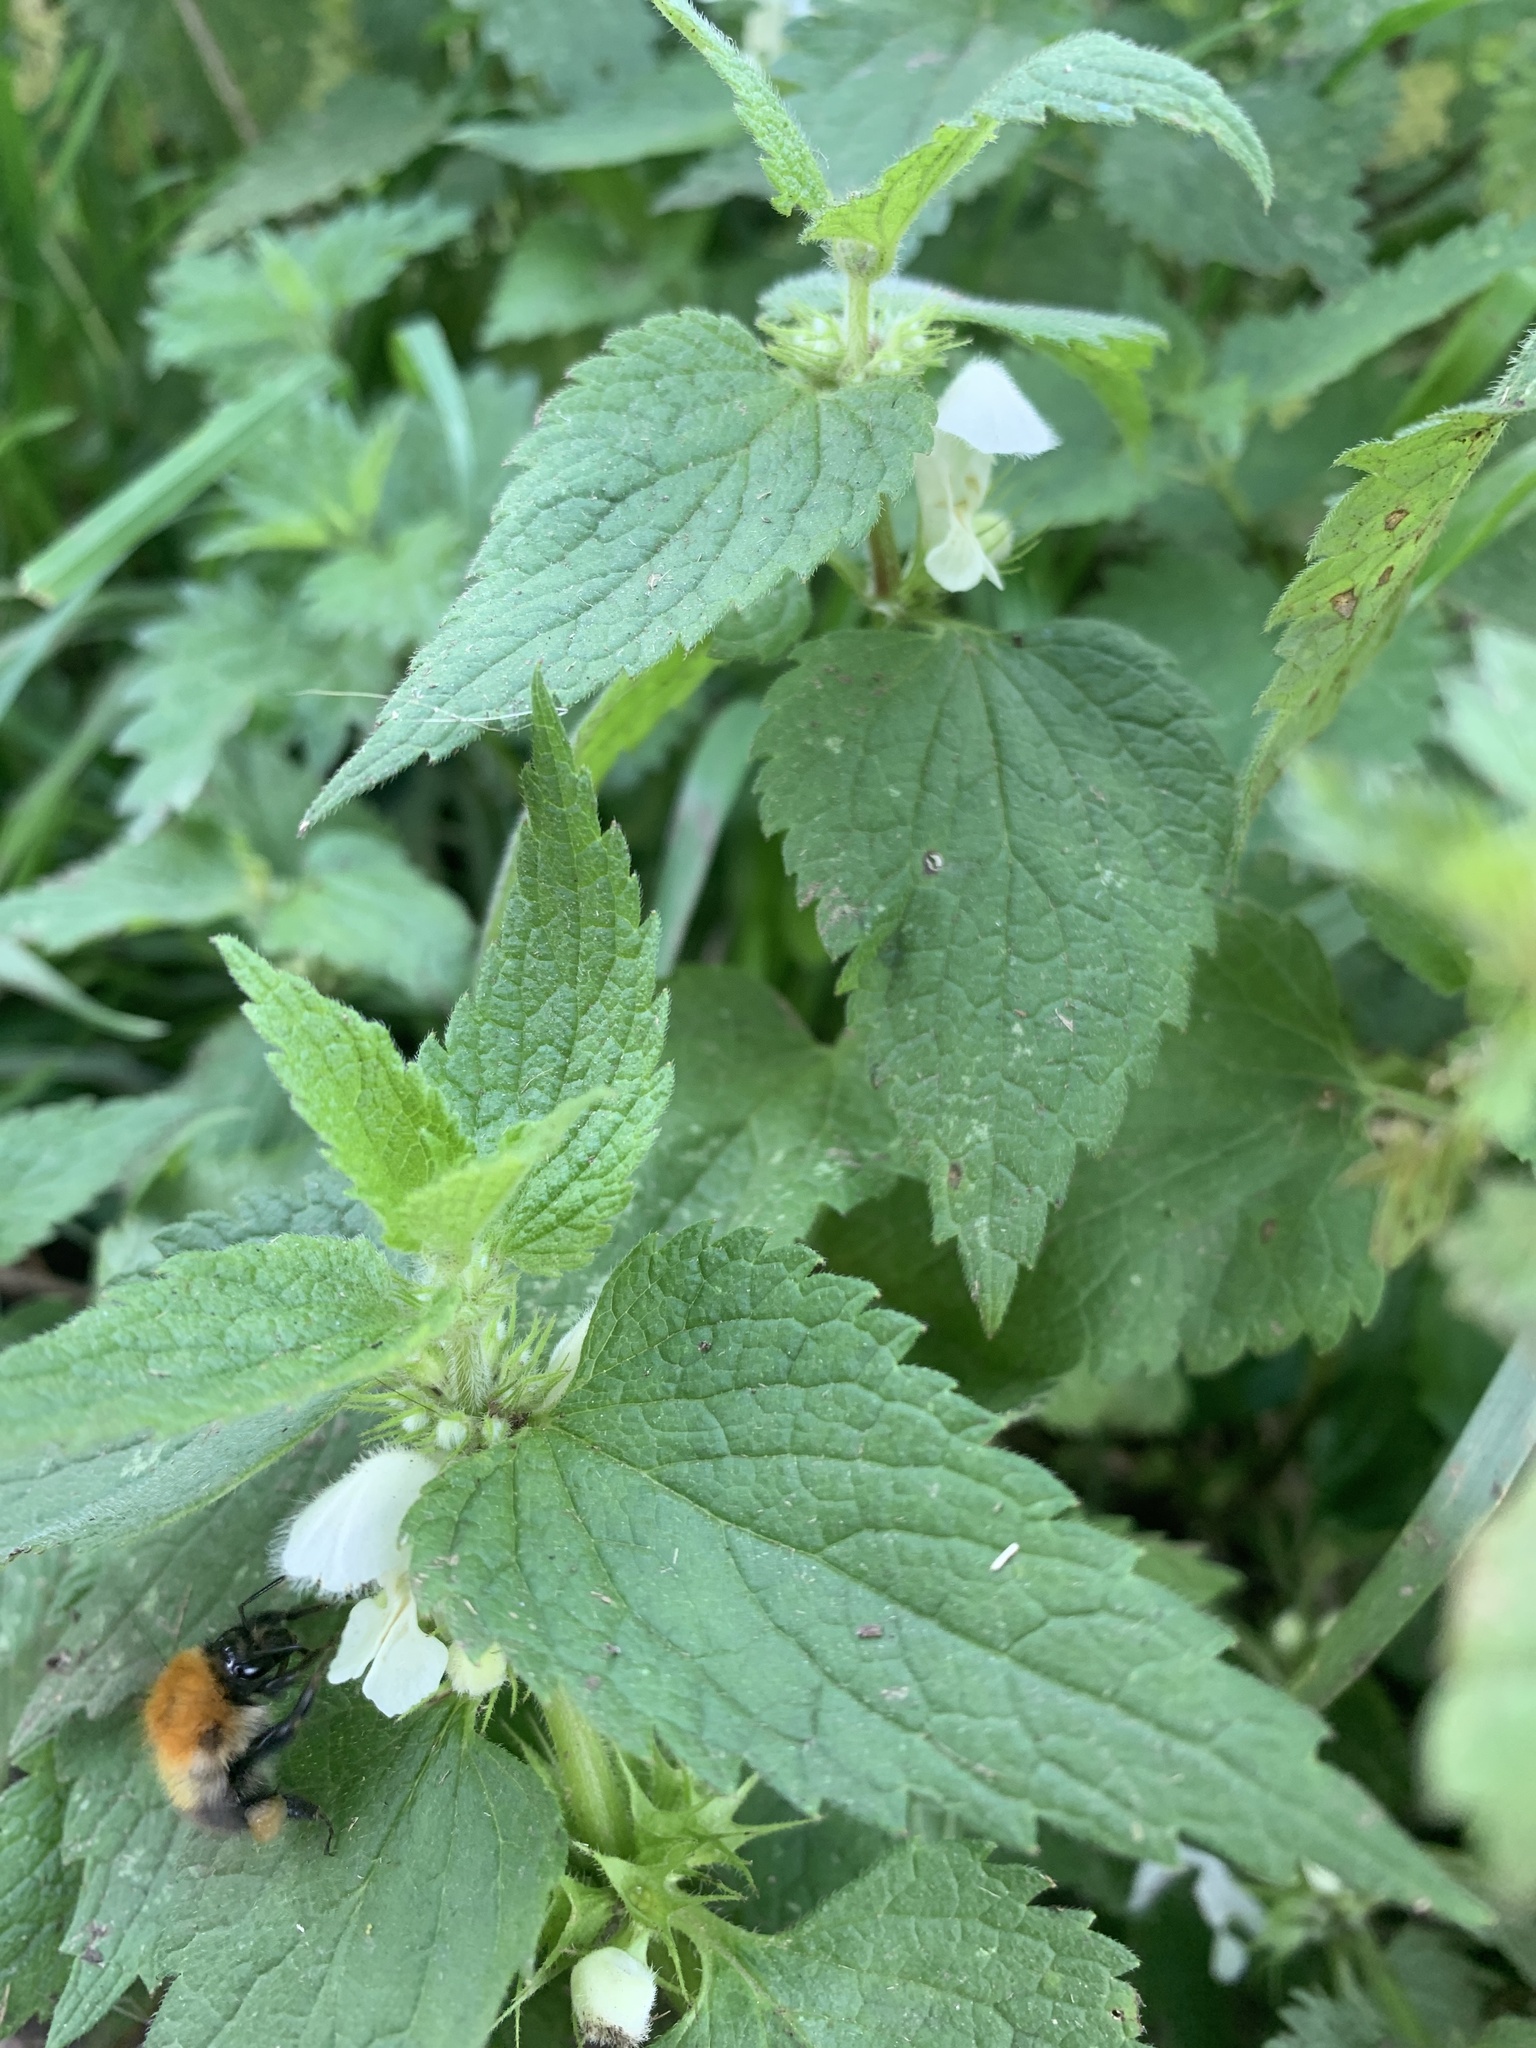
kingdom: Plantae
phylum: Tracheophyta
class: Magnoliopsida
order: Lamiales
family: Lamiaceae
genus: Lamium
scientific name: Lamium album
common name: White dead-nettle
